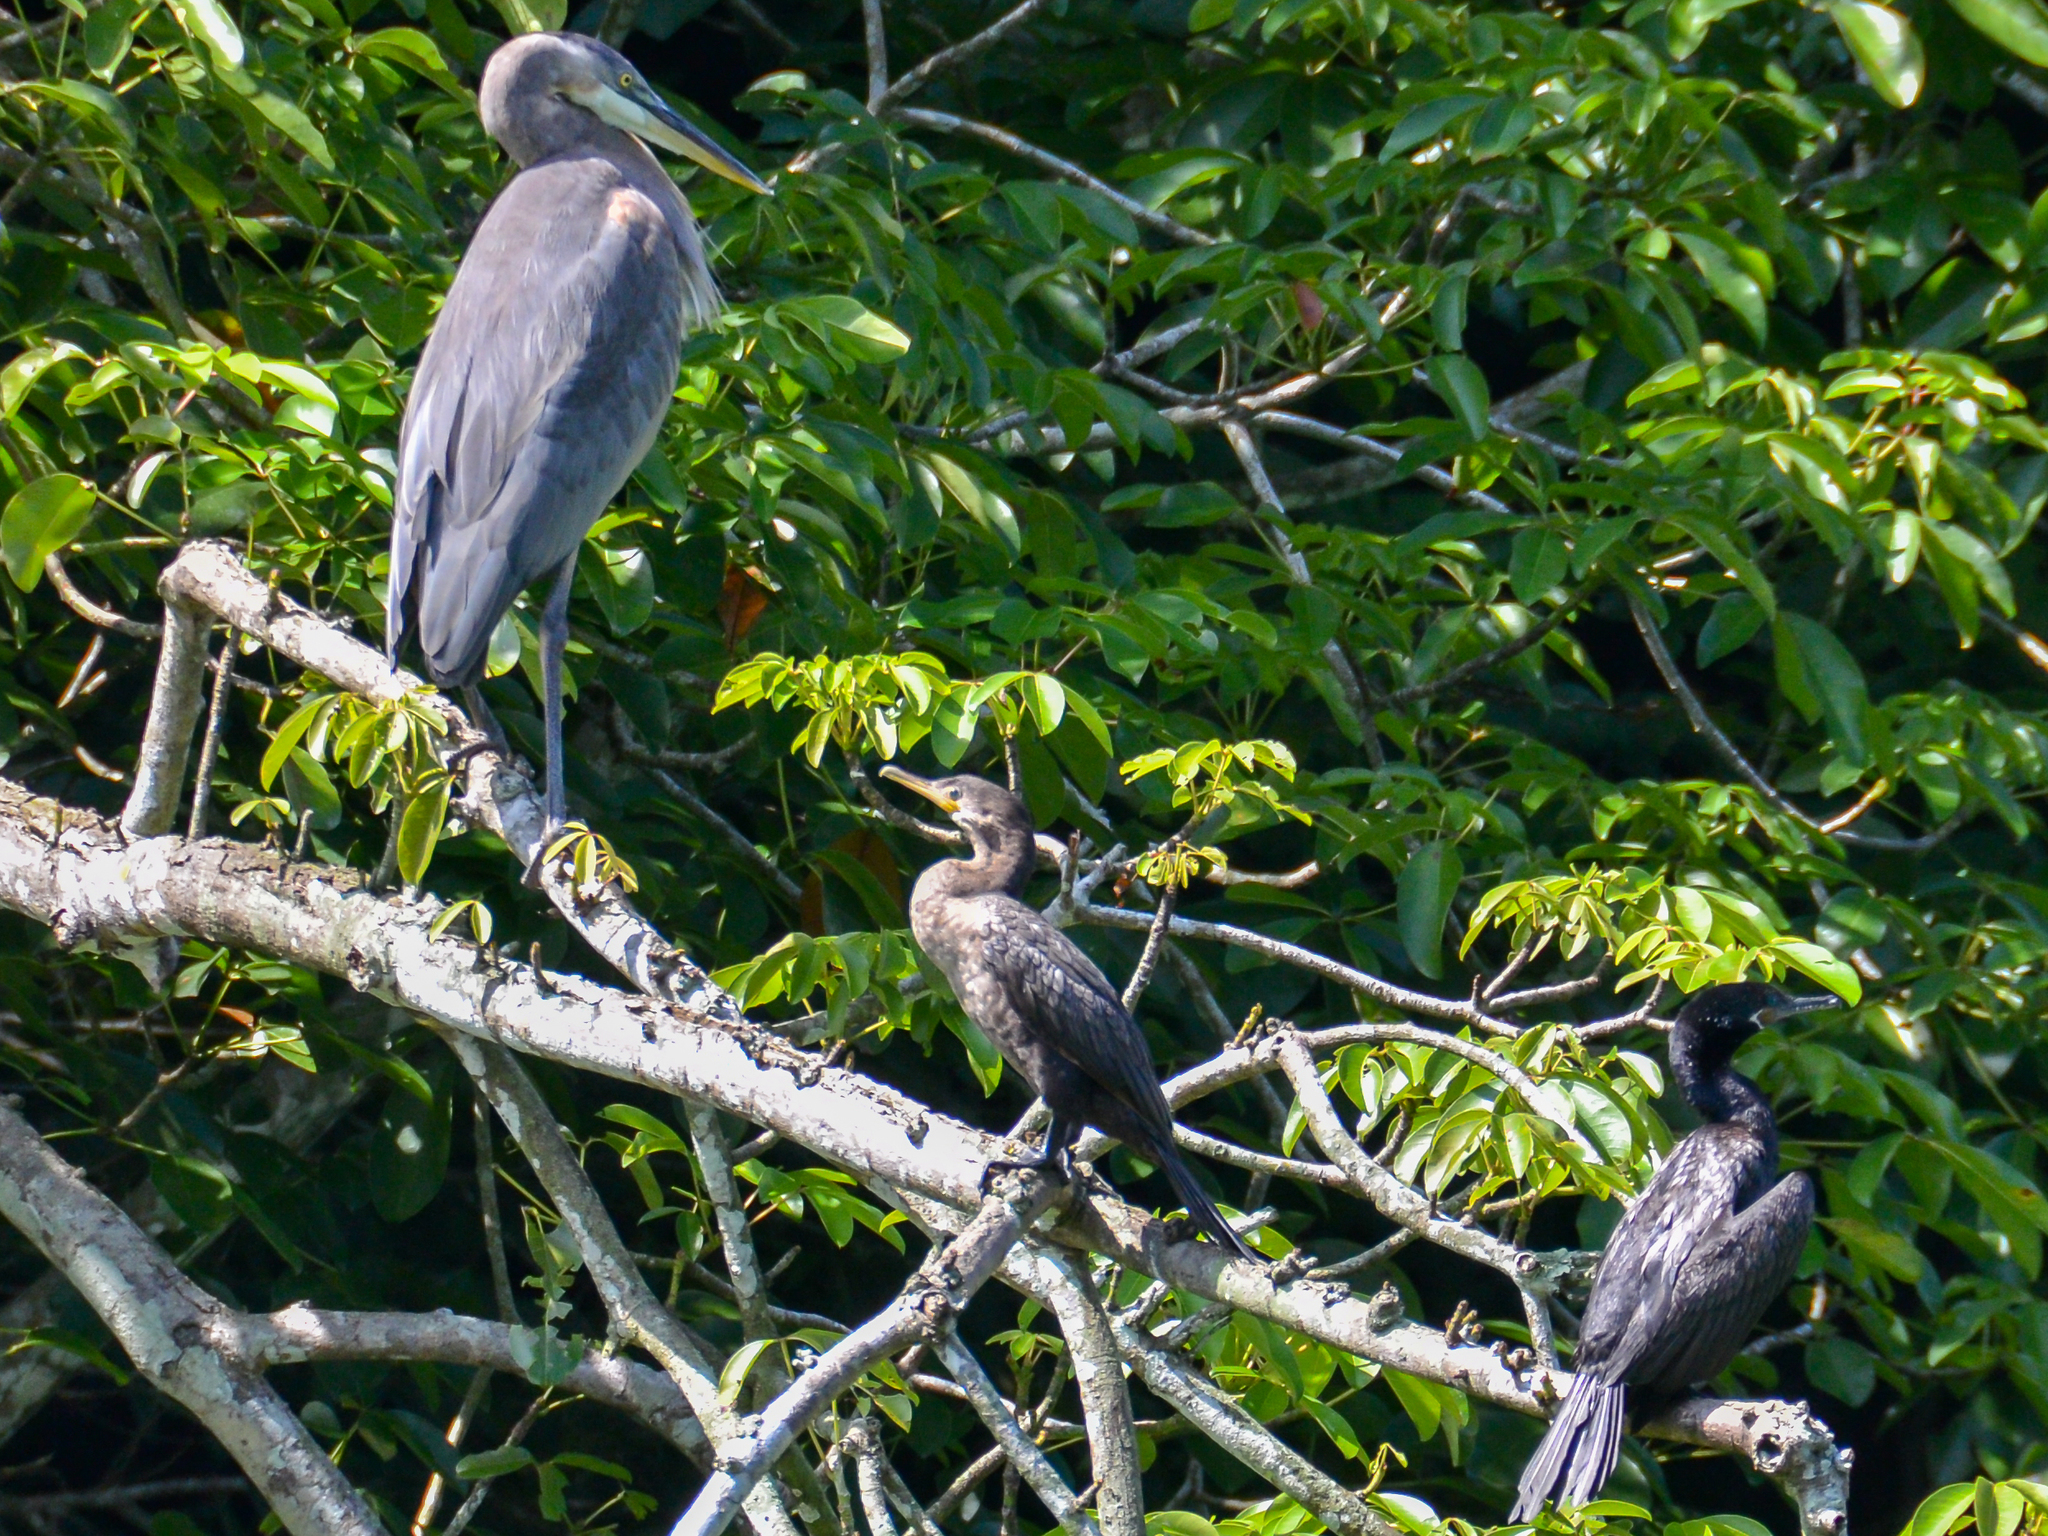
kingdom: Animalia
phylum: Chordata
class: Aves
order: Suliformes
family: Phalacrocoracidae
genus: Phalacrocorax
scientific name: Phalacrocorax brasilianus
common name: Neotropic cormorant
